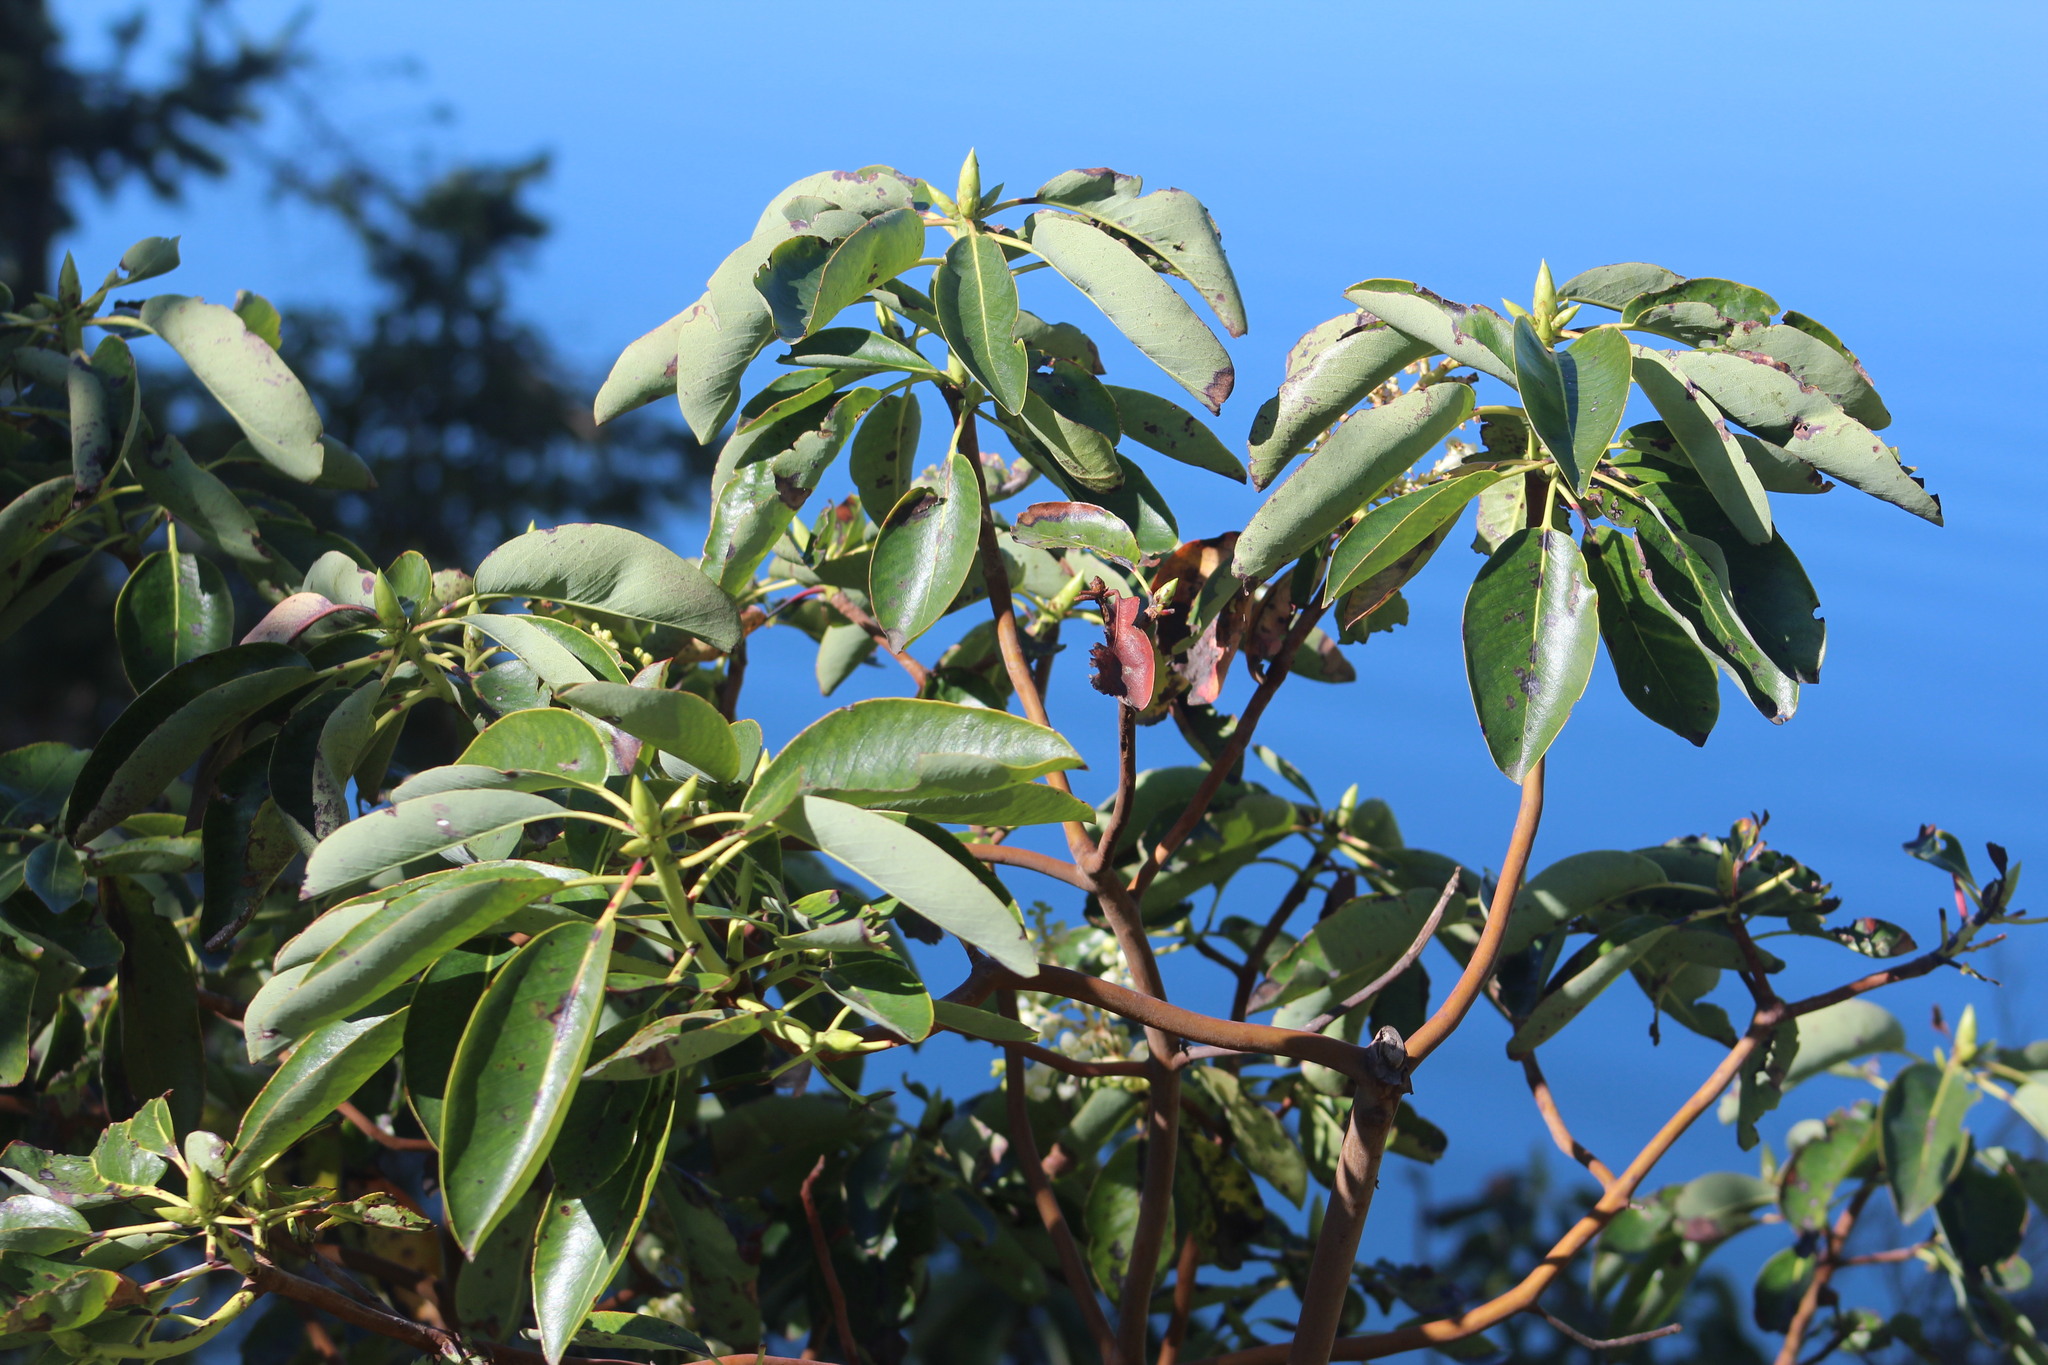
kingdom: Plantae
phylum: Tracheophyta
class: Magnoliopsida
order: Ericales
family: Ericaceae
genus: Arbutus
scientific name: Arbutus menziesii
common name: Pacific madrone
